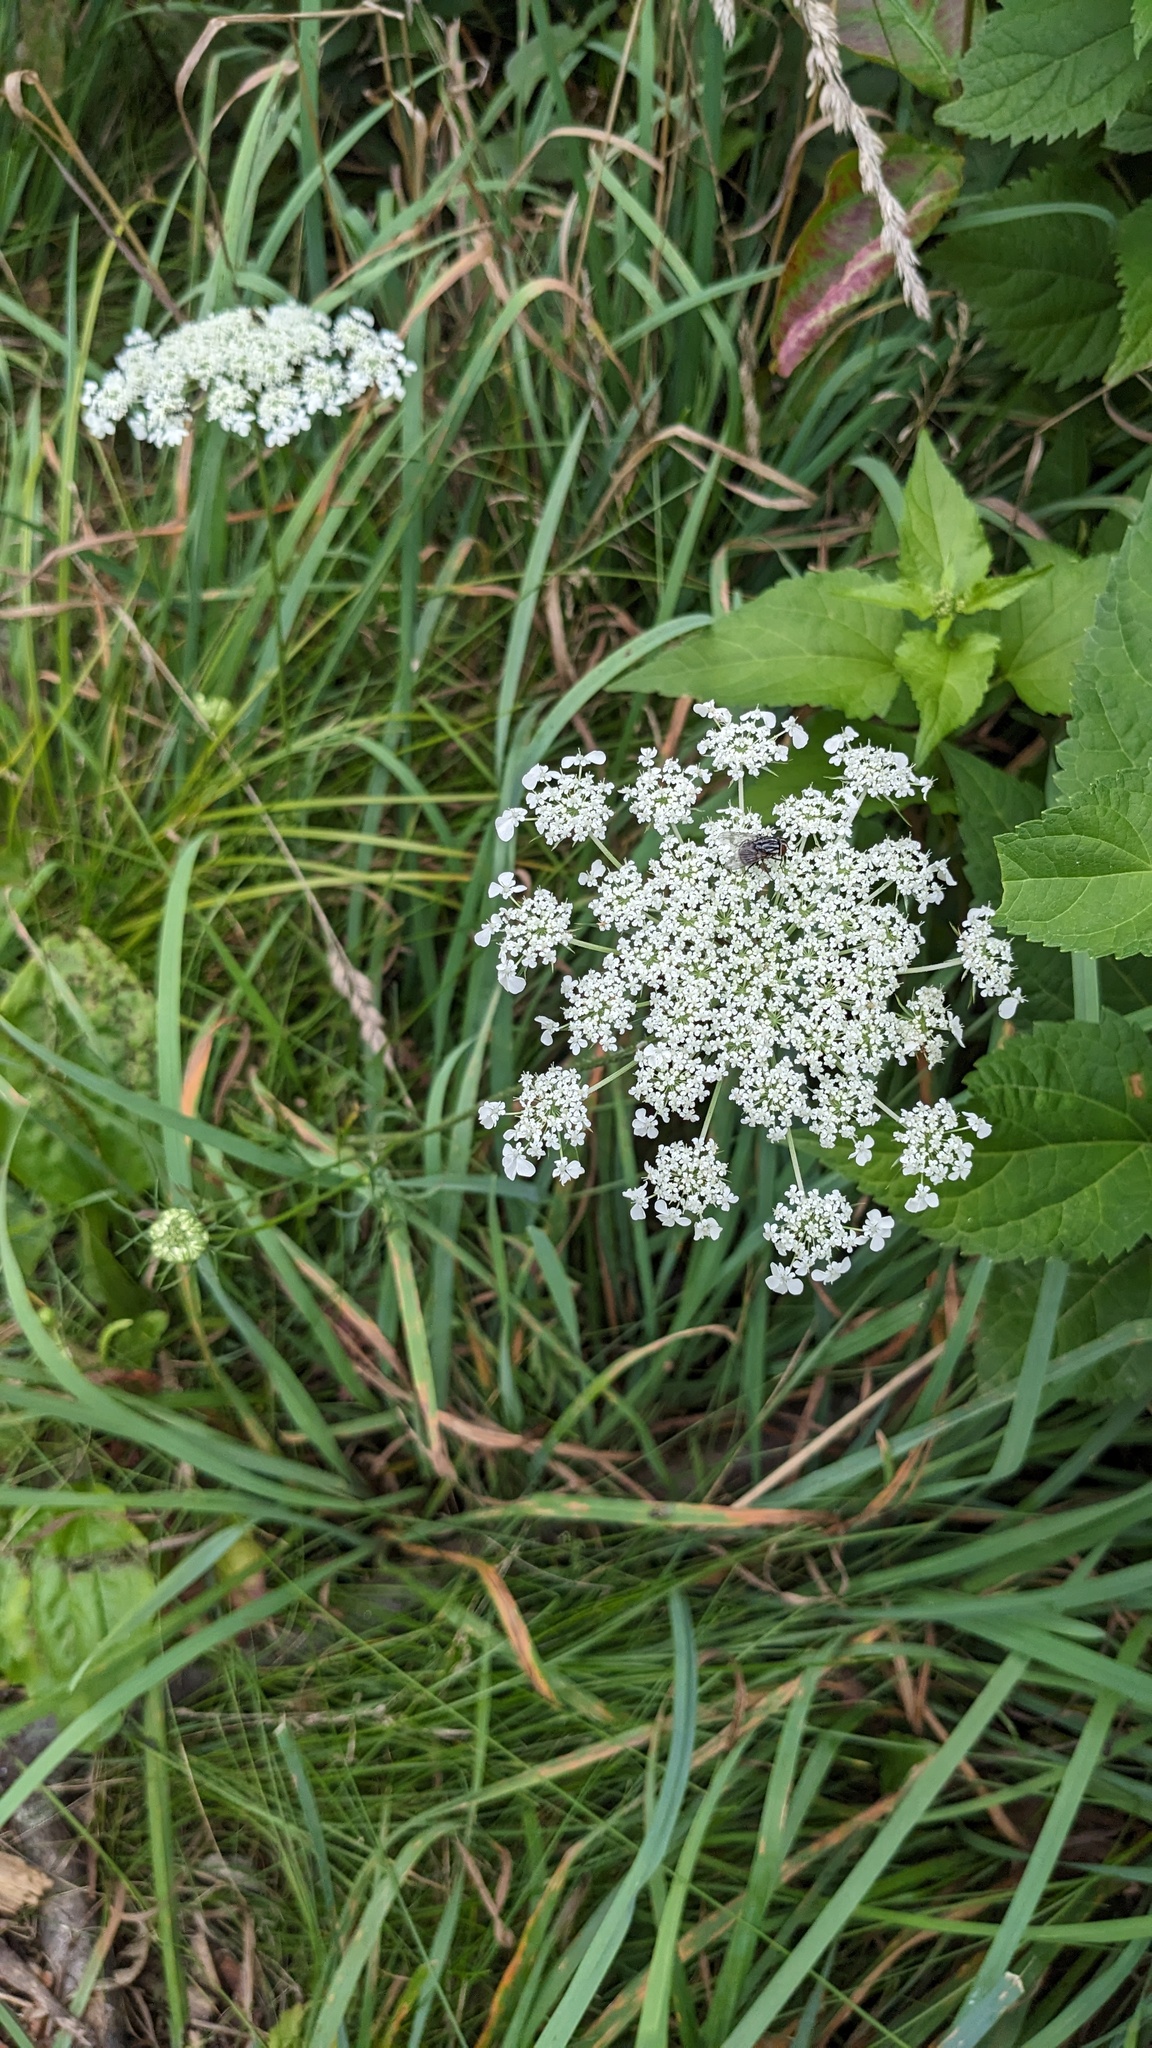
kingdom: Plantae
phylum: Tracheophyta
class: Magnoliopsida
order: Apiales
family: Apiaceae
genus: Daucus
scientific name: Daucus carota
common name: Wild carrot
